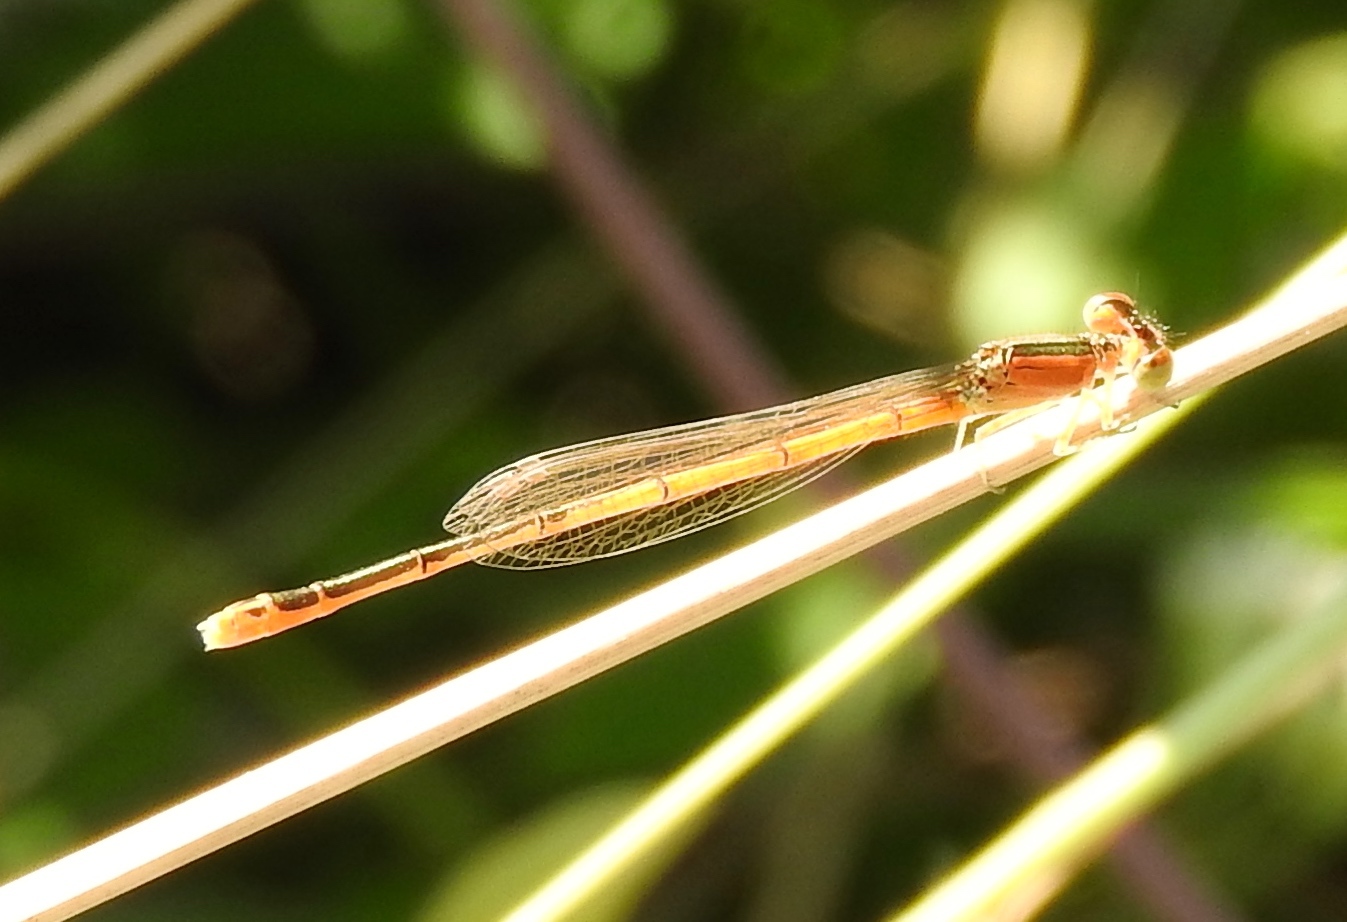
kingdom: Animalia
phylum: Arthropoda
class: Insecta
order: Odonata
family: Coenagrionidae
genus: Ischnura
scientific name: Ischnura hastata
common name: Citrine forktail
